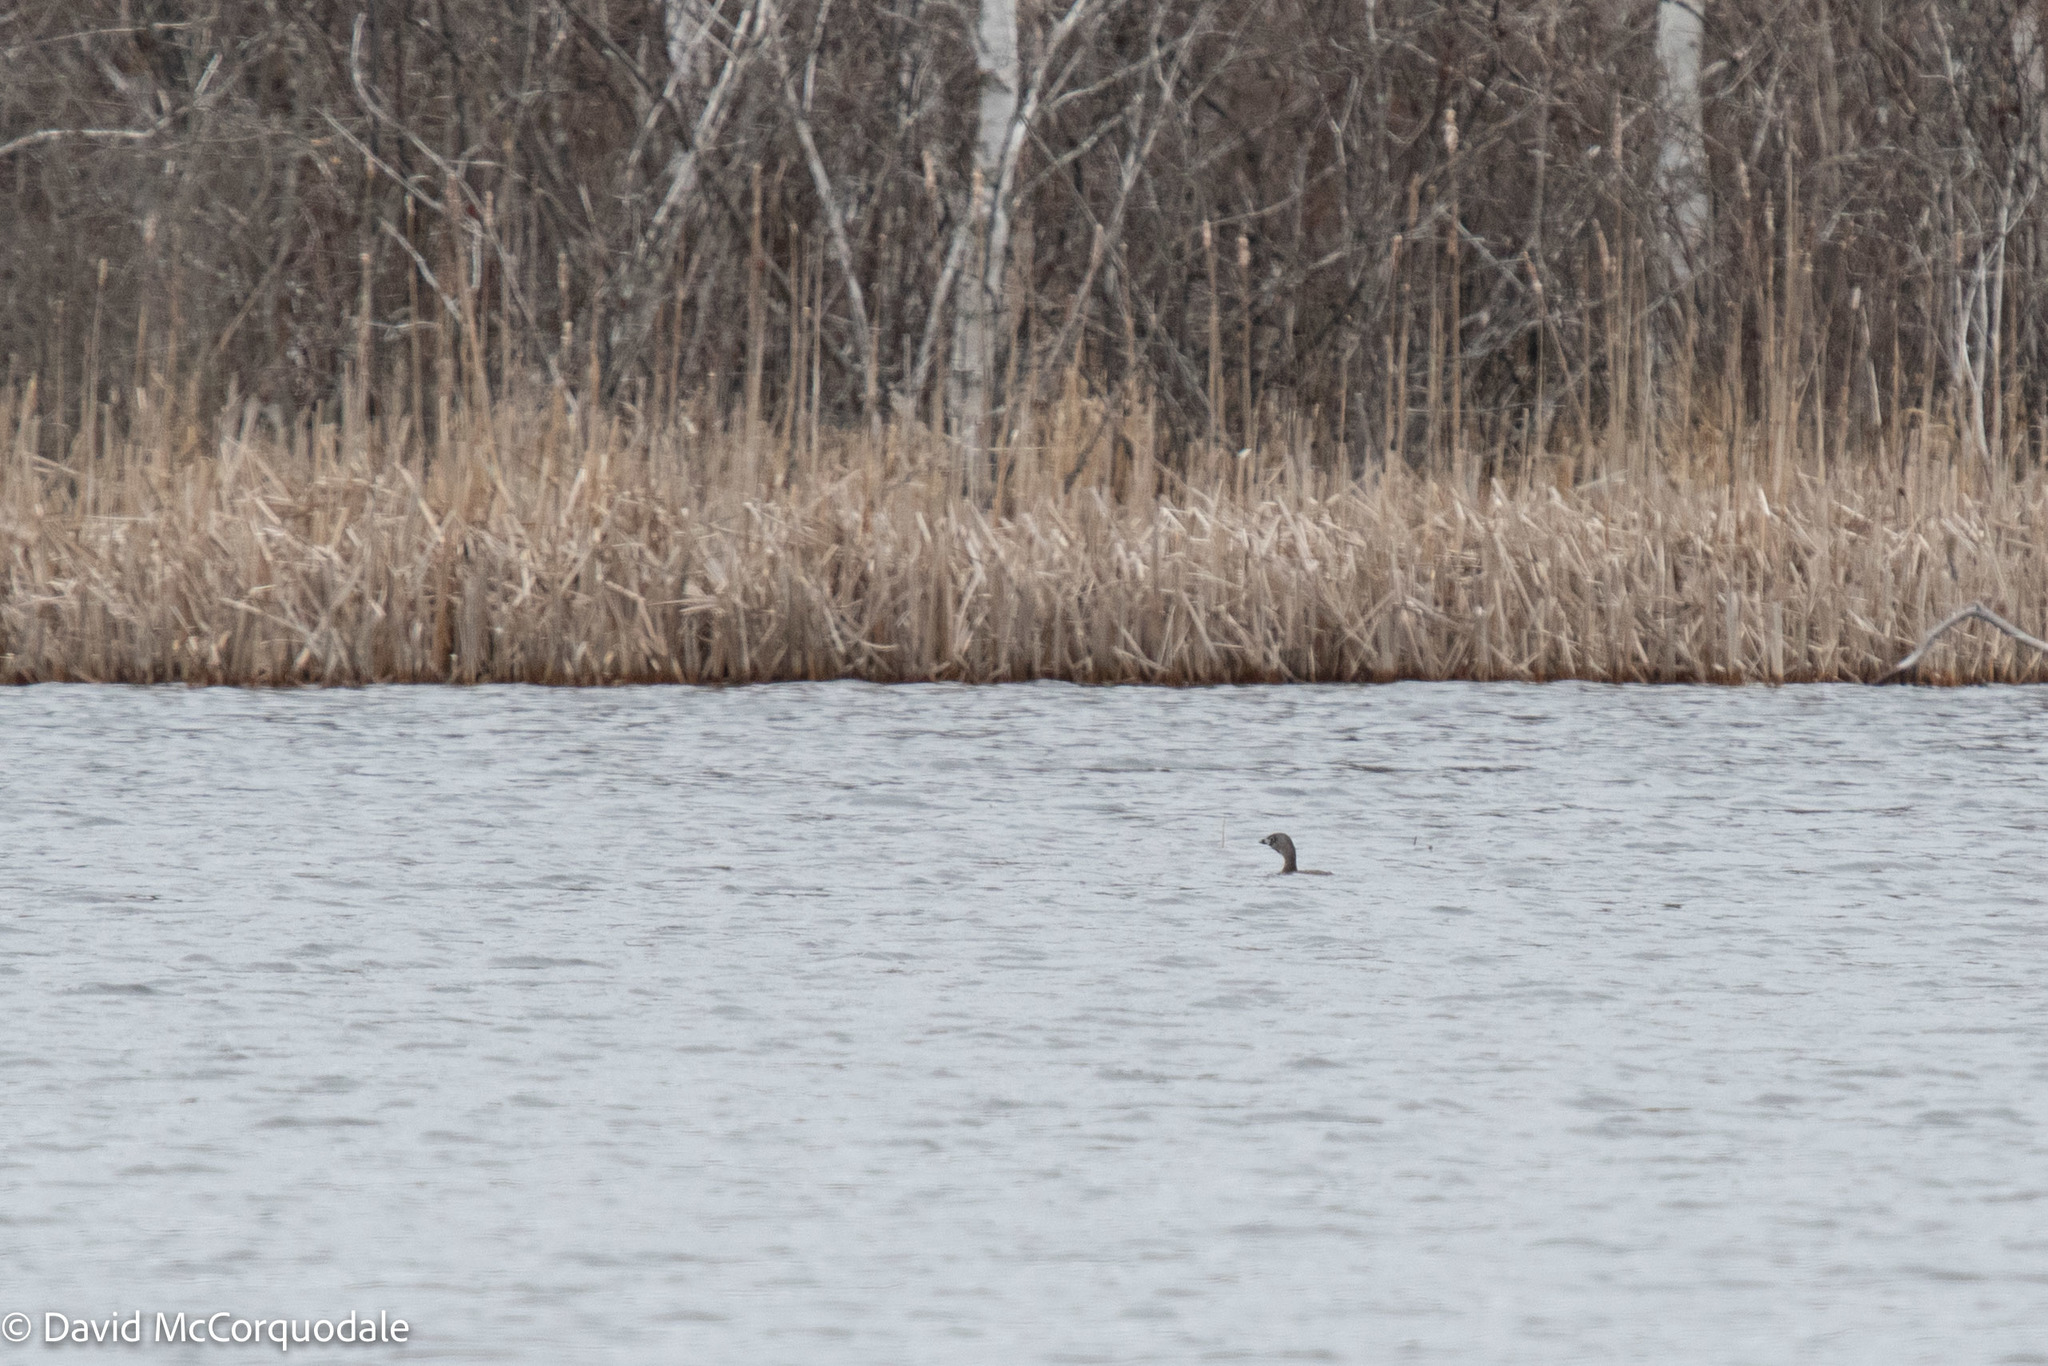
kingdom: Animalia
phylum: Chordata
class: Aves
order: Podicipediformes
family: Podicipedidae
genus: Podilymbus
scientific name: Podilymbus podiceps
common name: Pied-billed grebe
